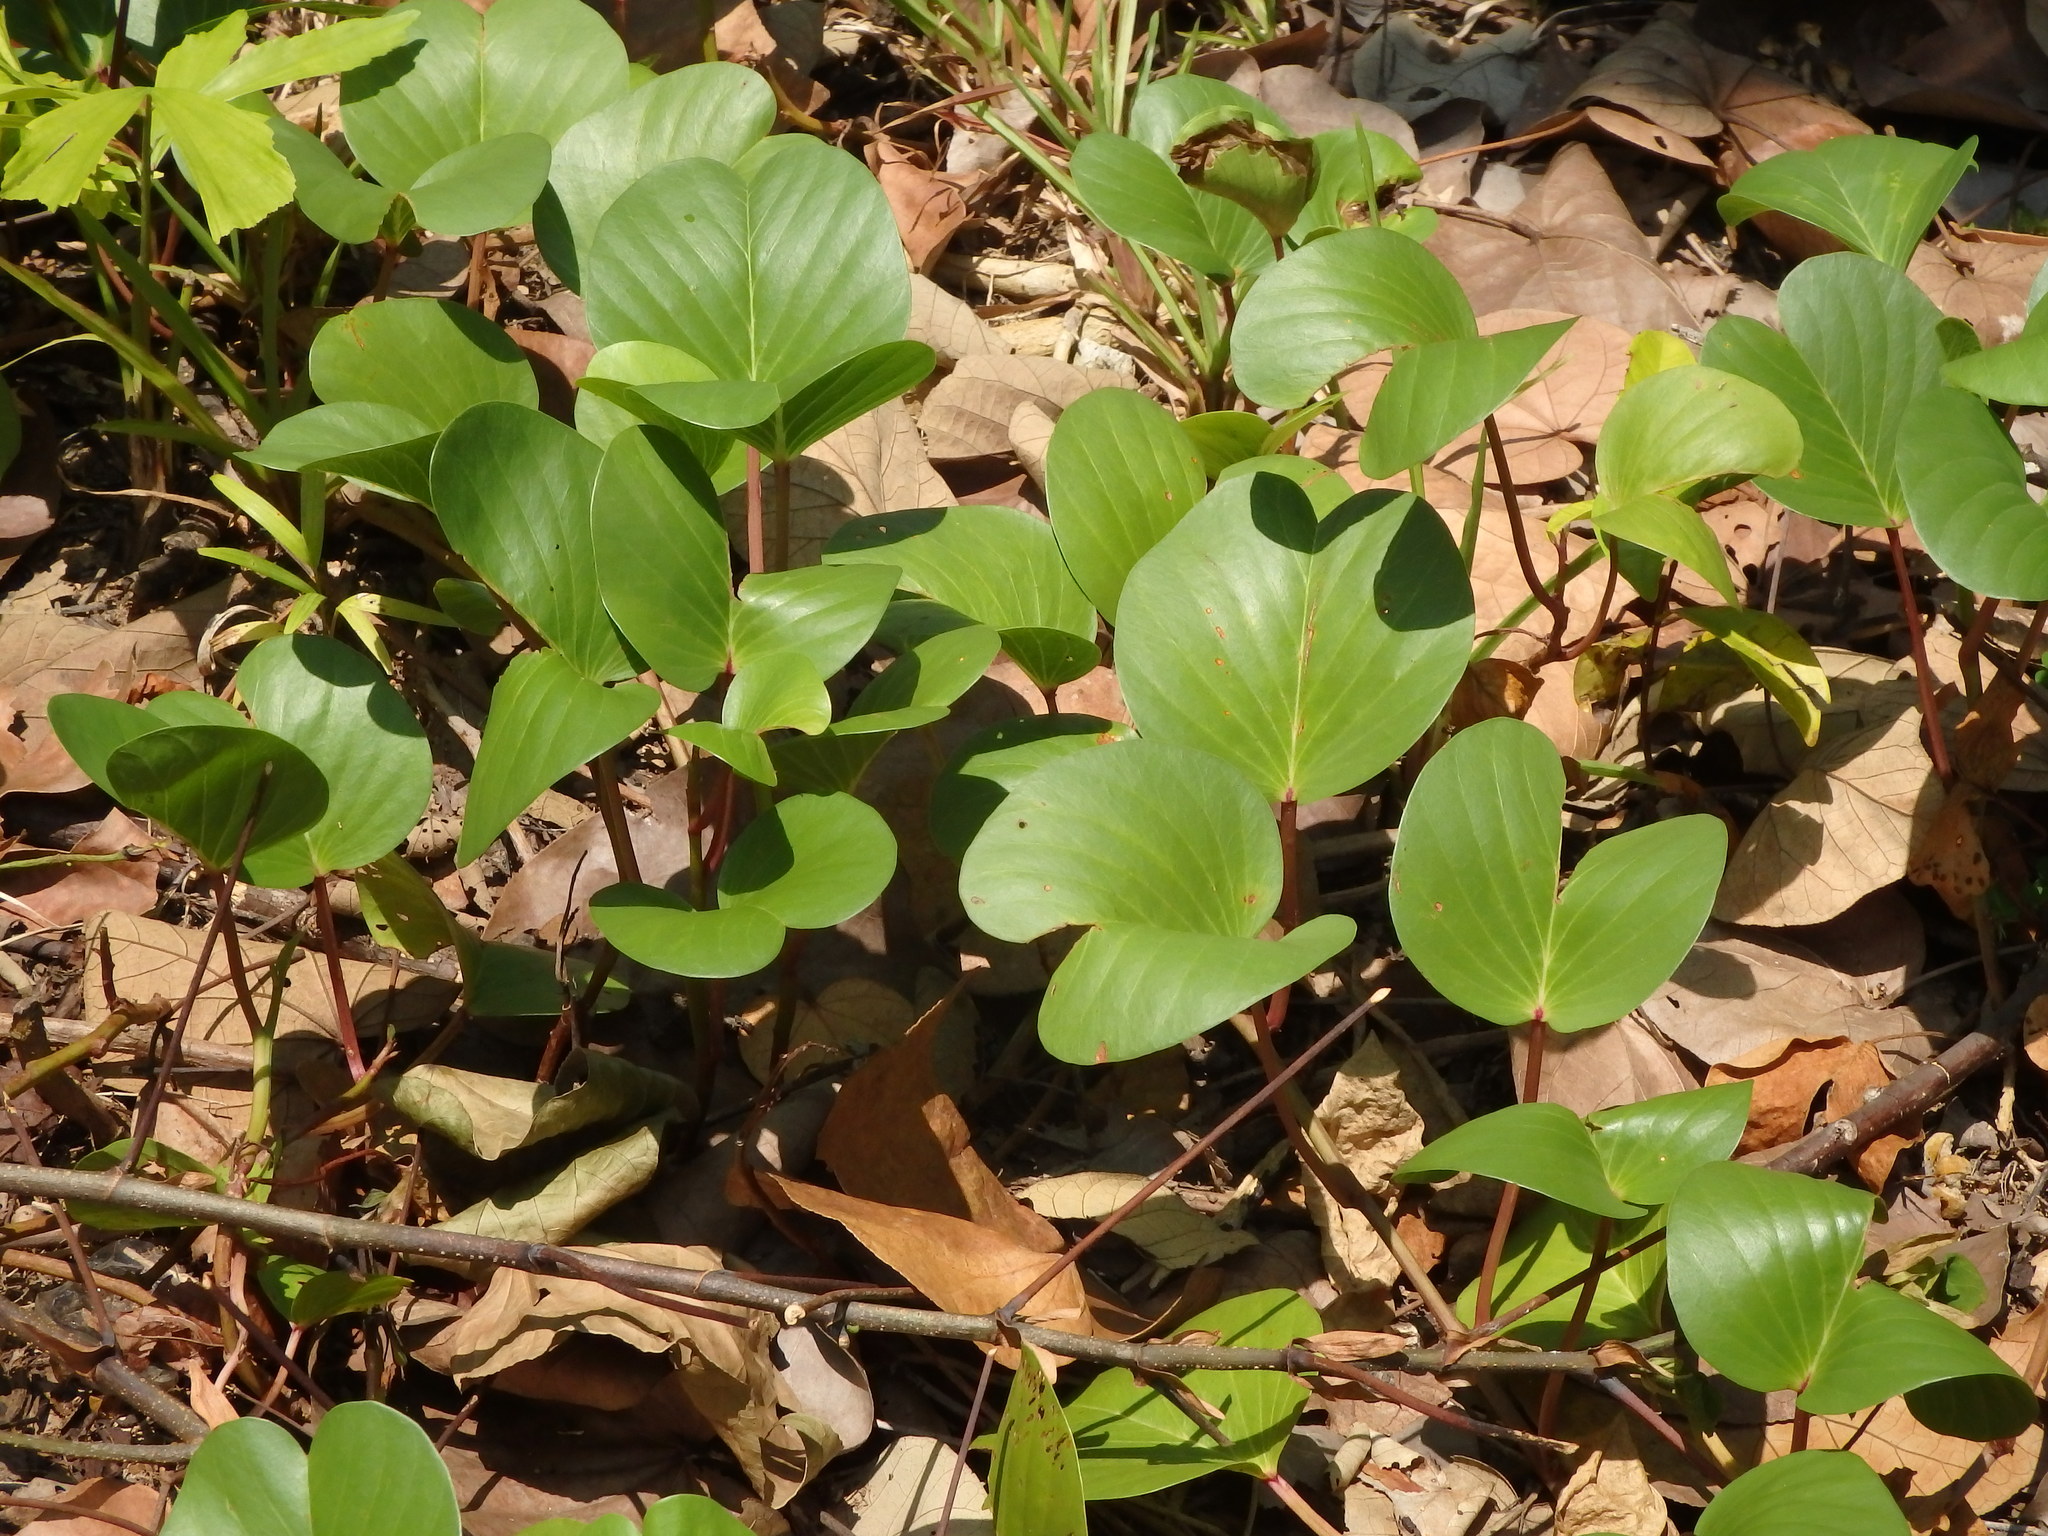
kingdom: Plantae
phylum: Tracheophyta
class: Magnoliopsida
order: Solanales
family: Convolvulaceae
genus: Ipomoea
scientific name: Ipomoea pes-caprae
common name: Beach morning glory
